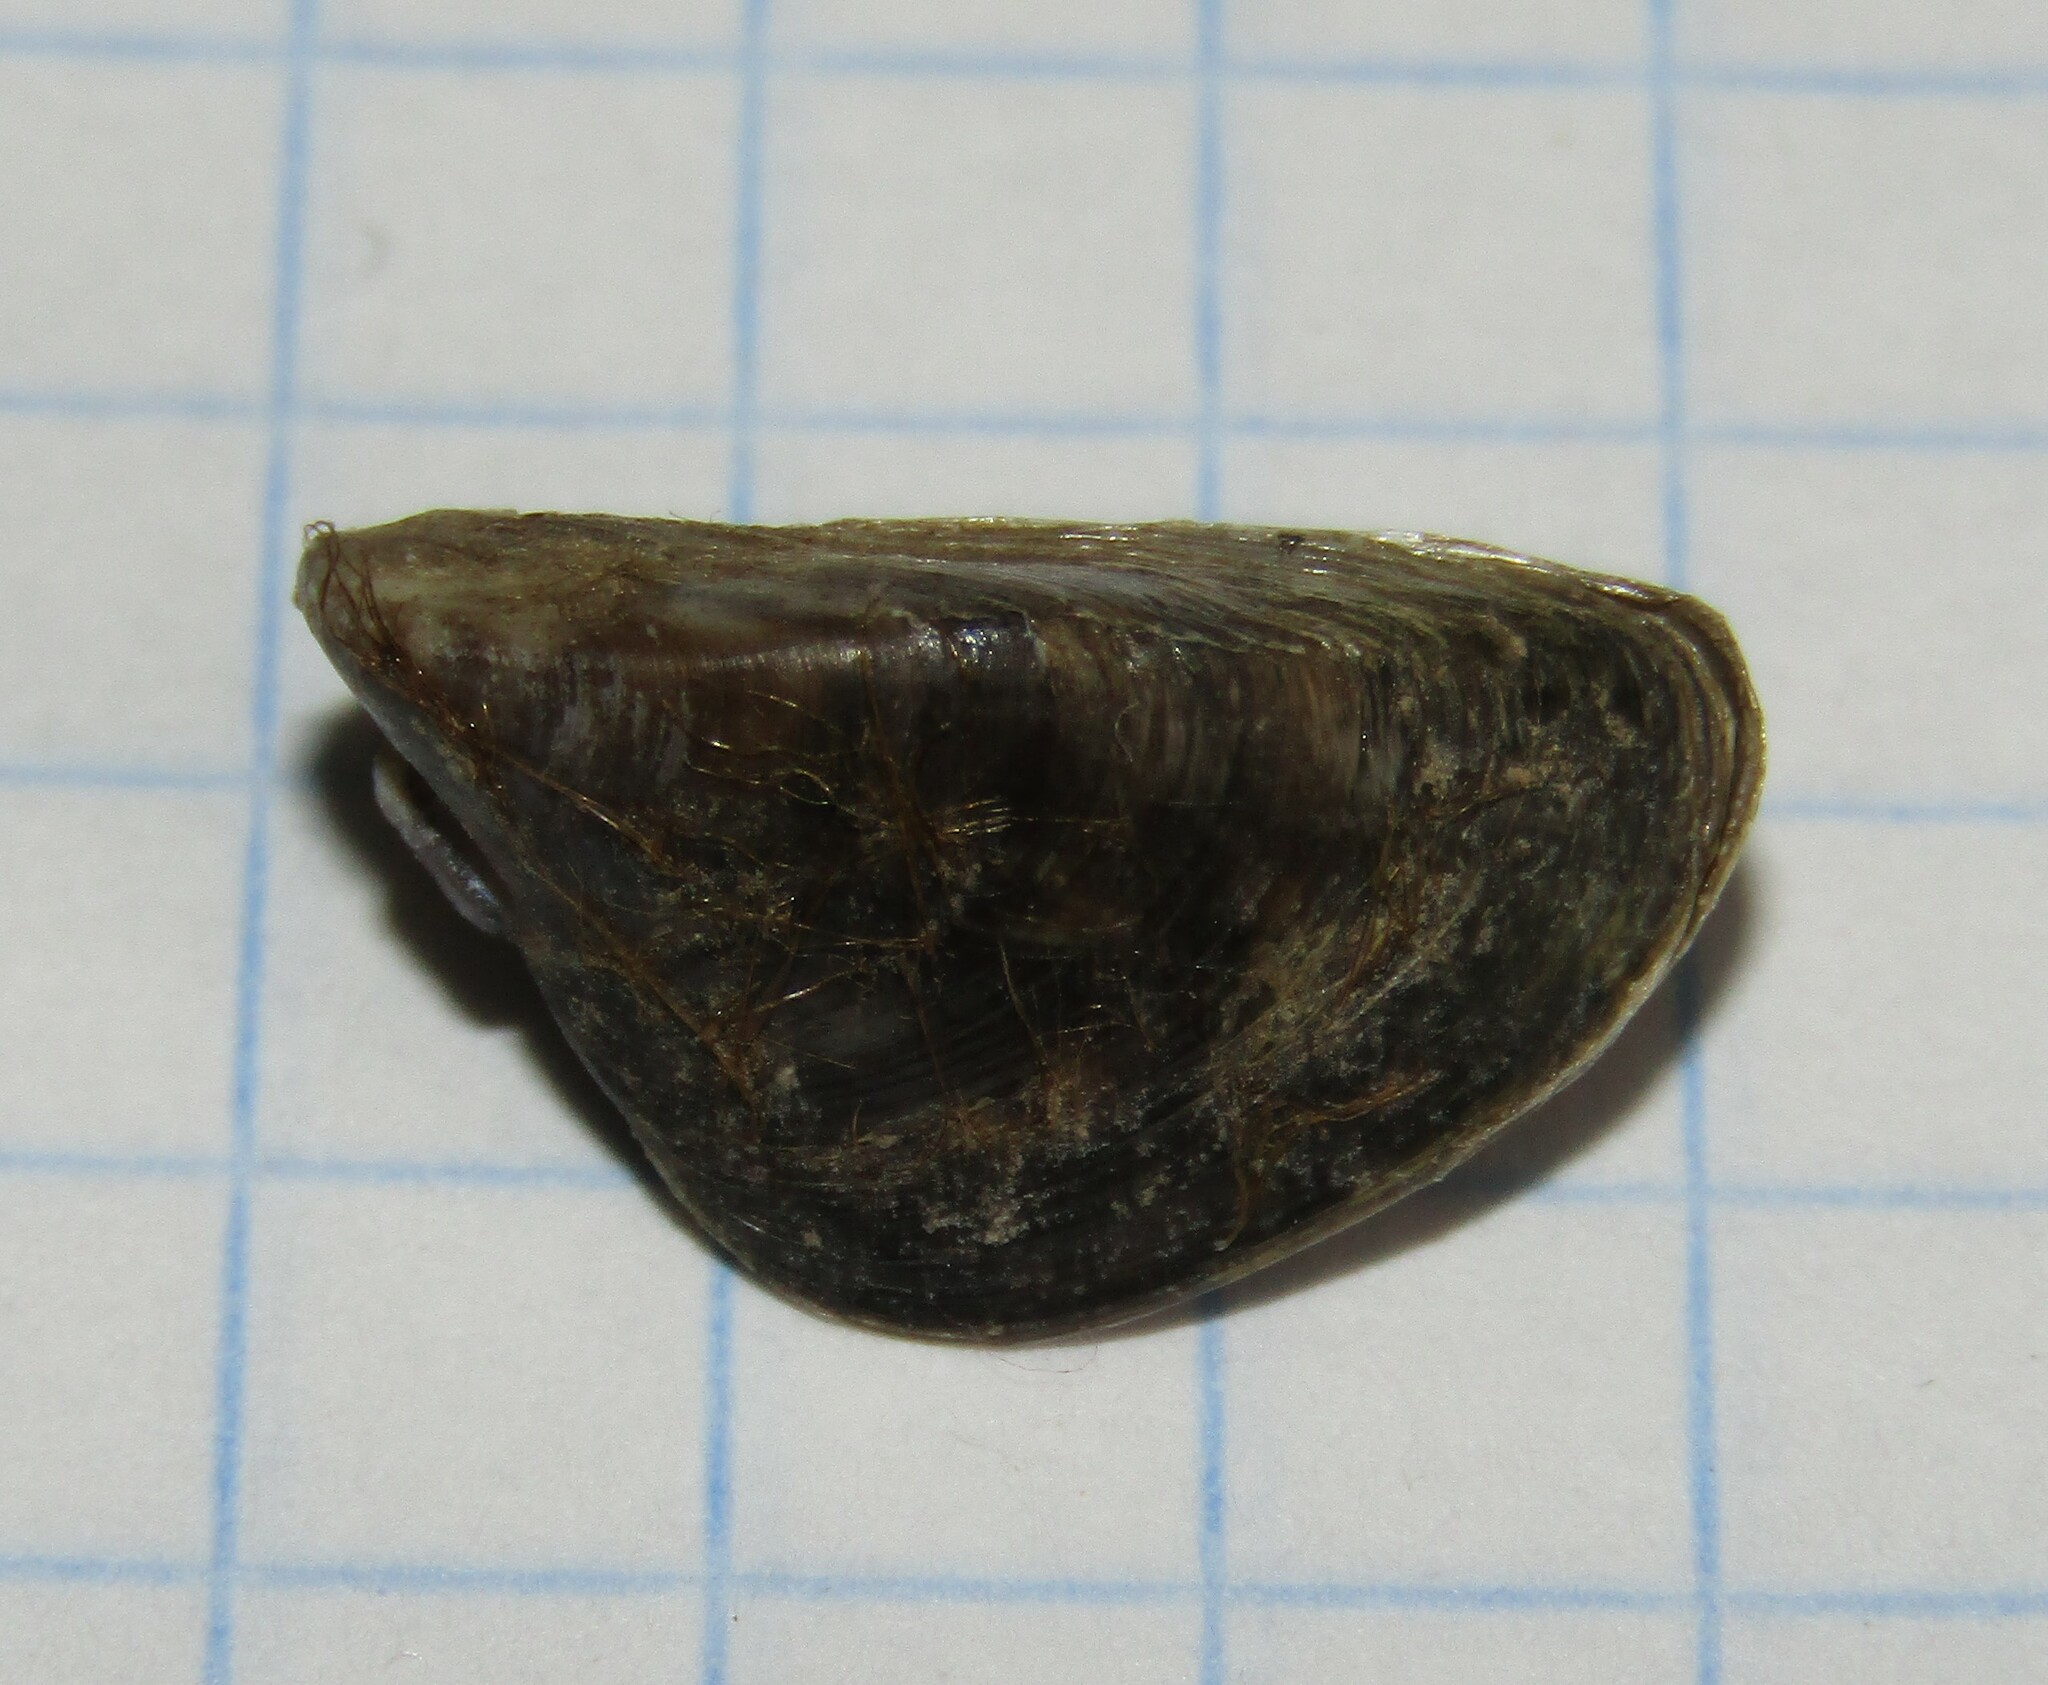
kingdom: Animalia
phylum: Mollusca
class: Bivalvia
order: Myida
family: Dreissenidae
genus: Dreissena
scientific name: Dreissena polymorpha
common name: Zebra mussel
